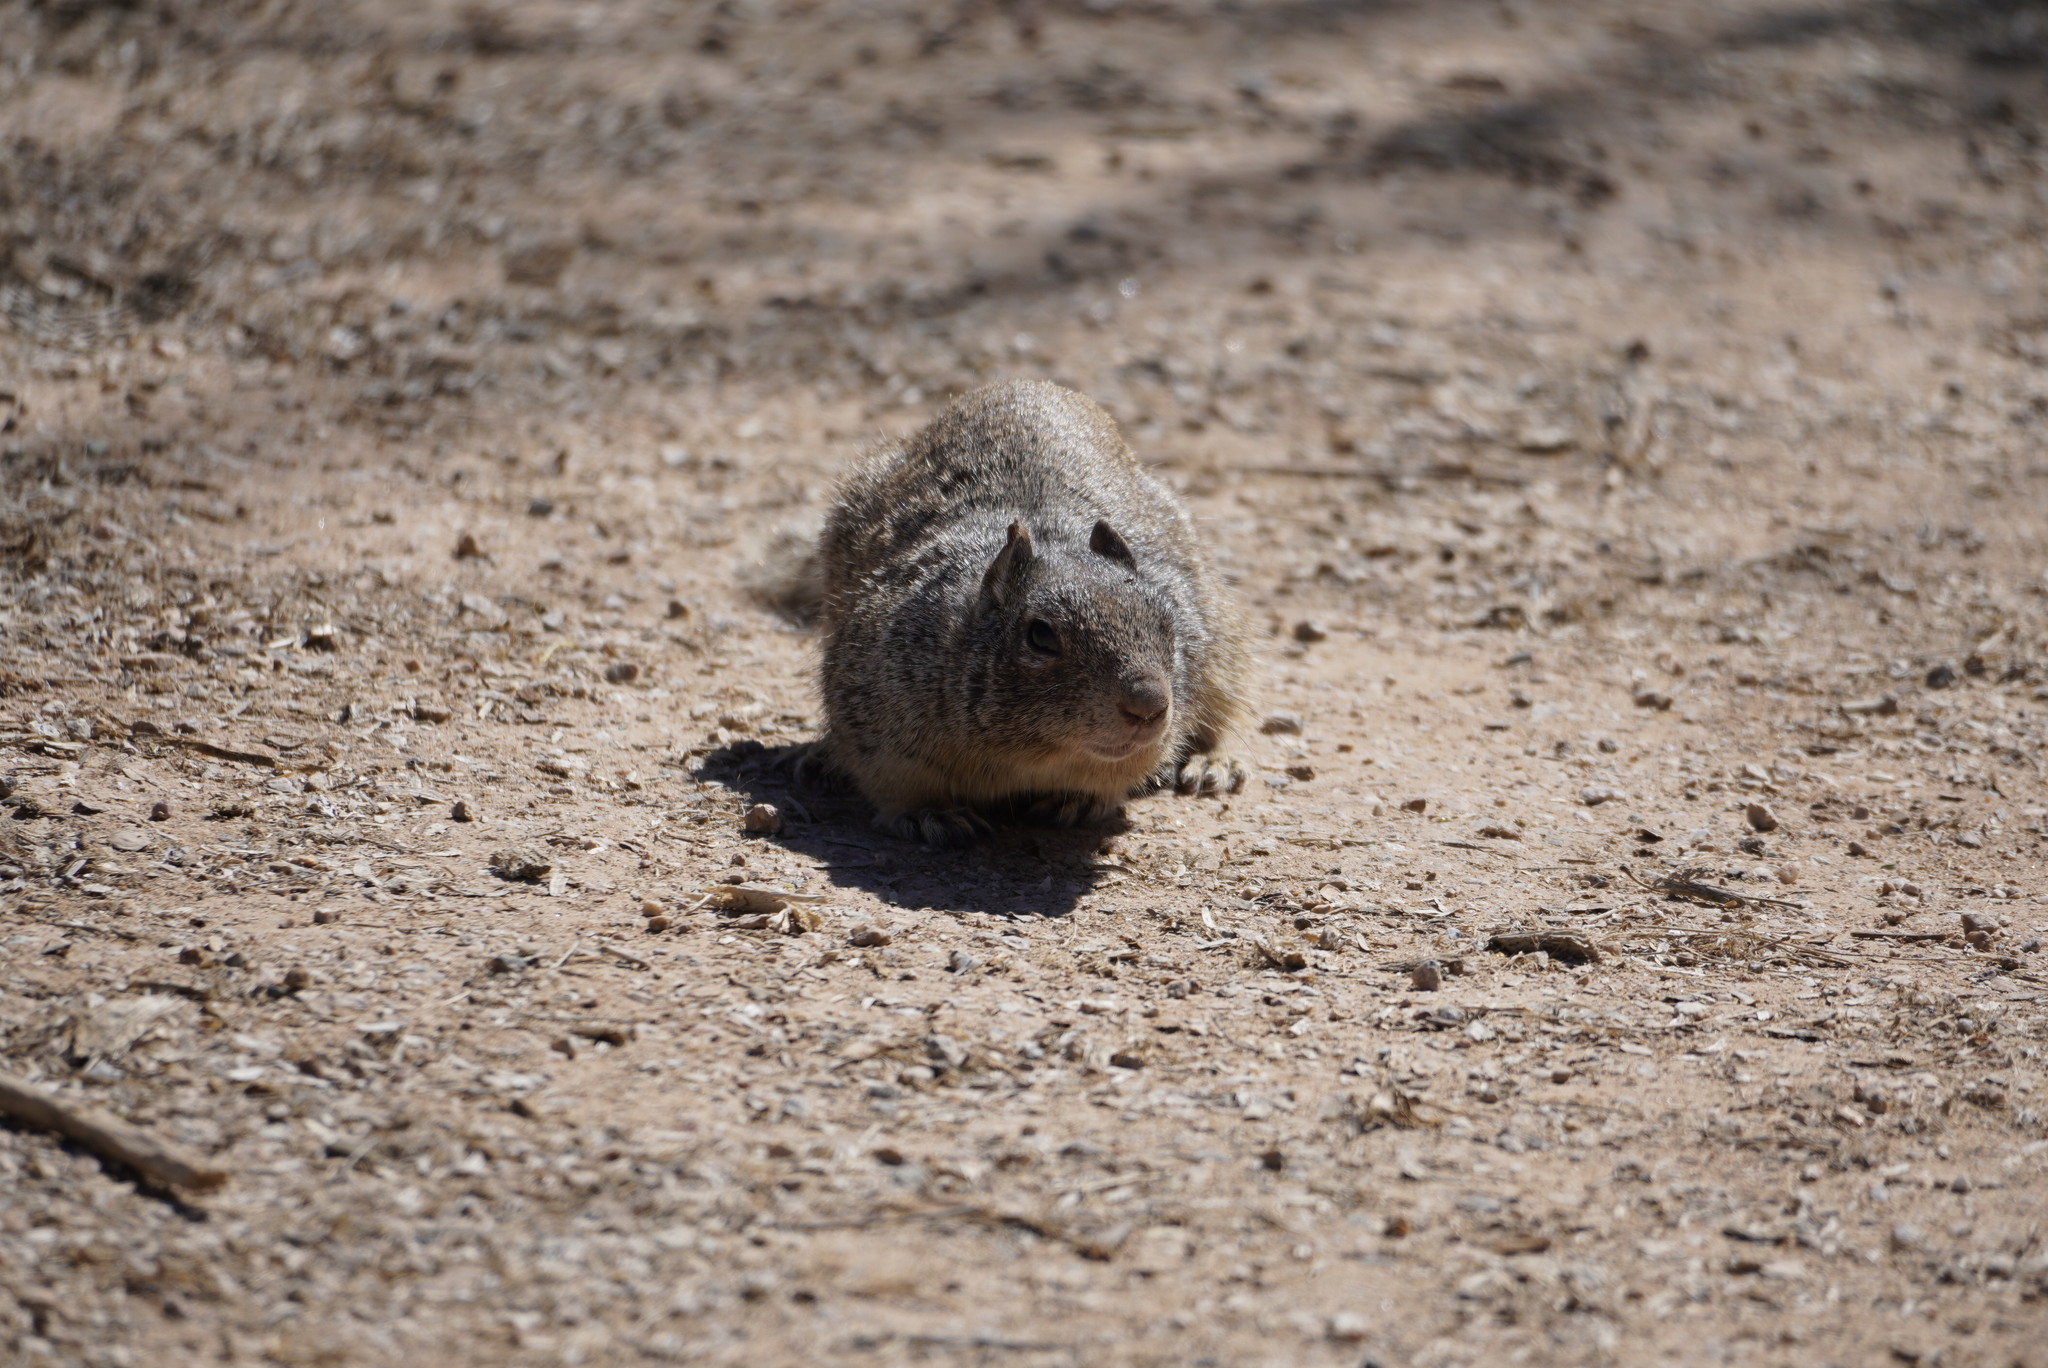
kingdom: Animalia
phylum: Chordata
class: Mammalia
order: Rodentia
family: Sciuridae
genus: Otospermophilus
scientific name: Otospermophilus variegatus
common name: Rock squirrel
